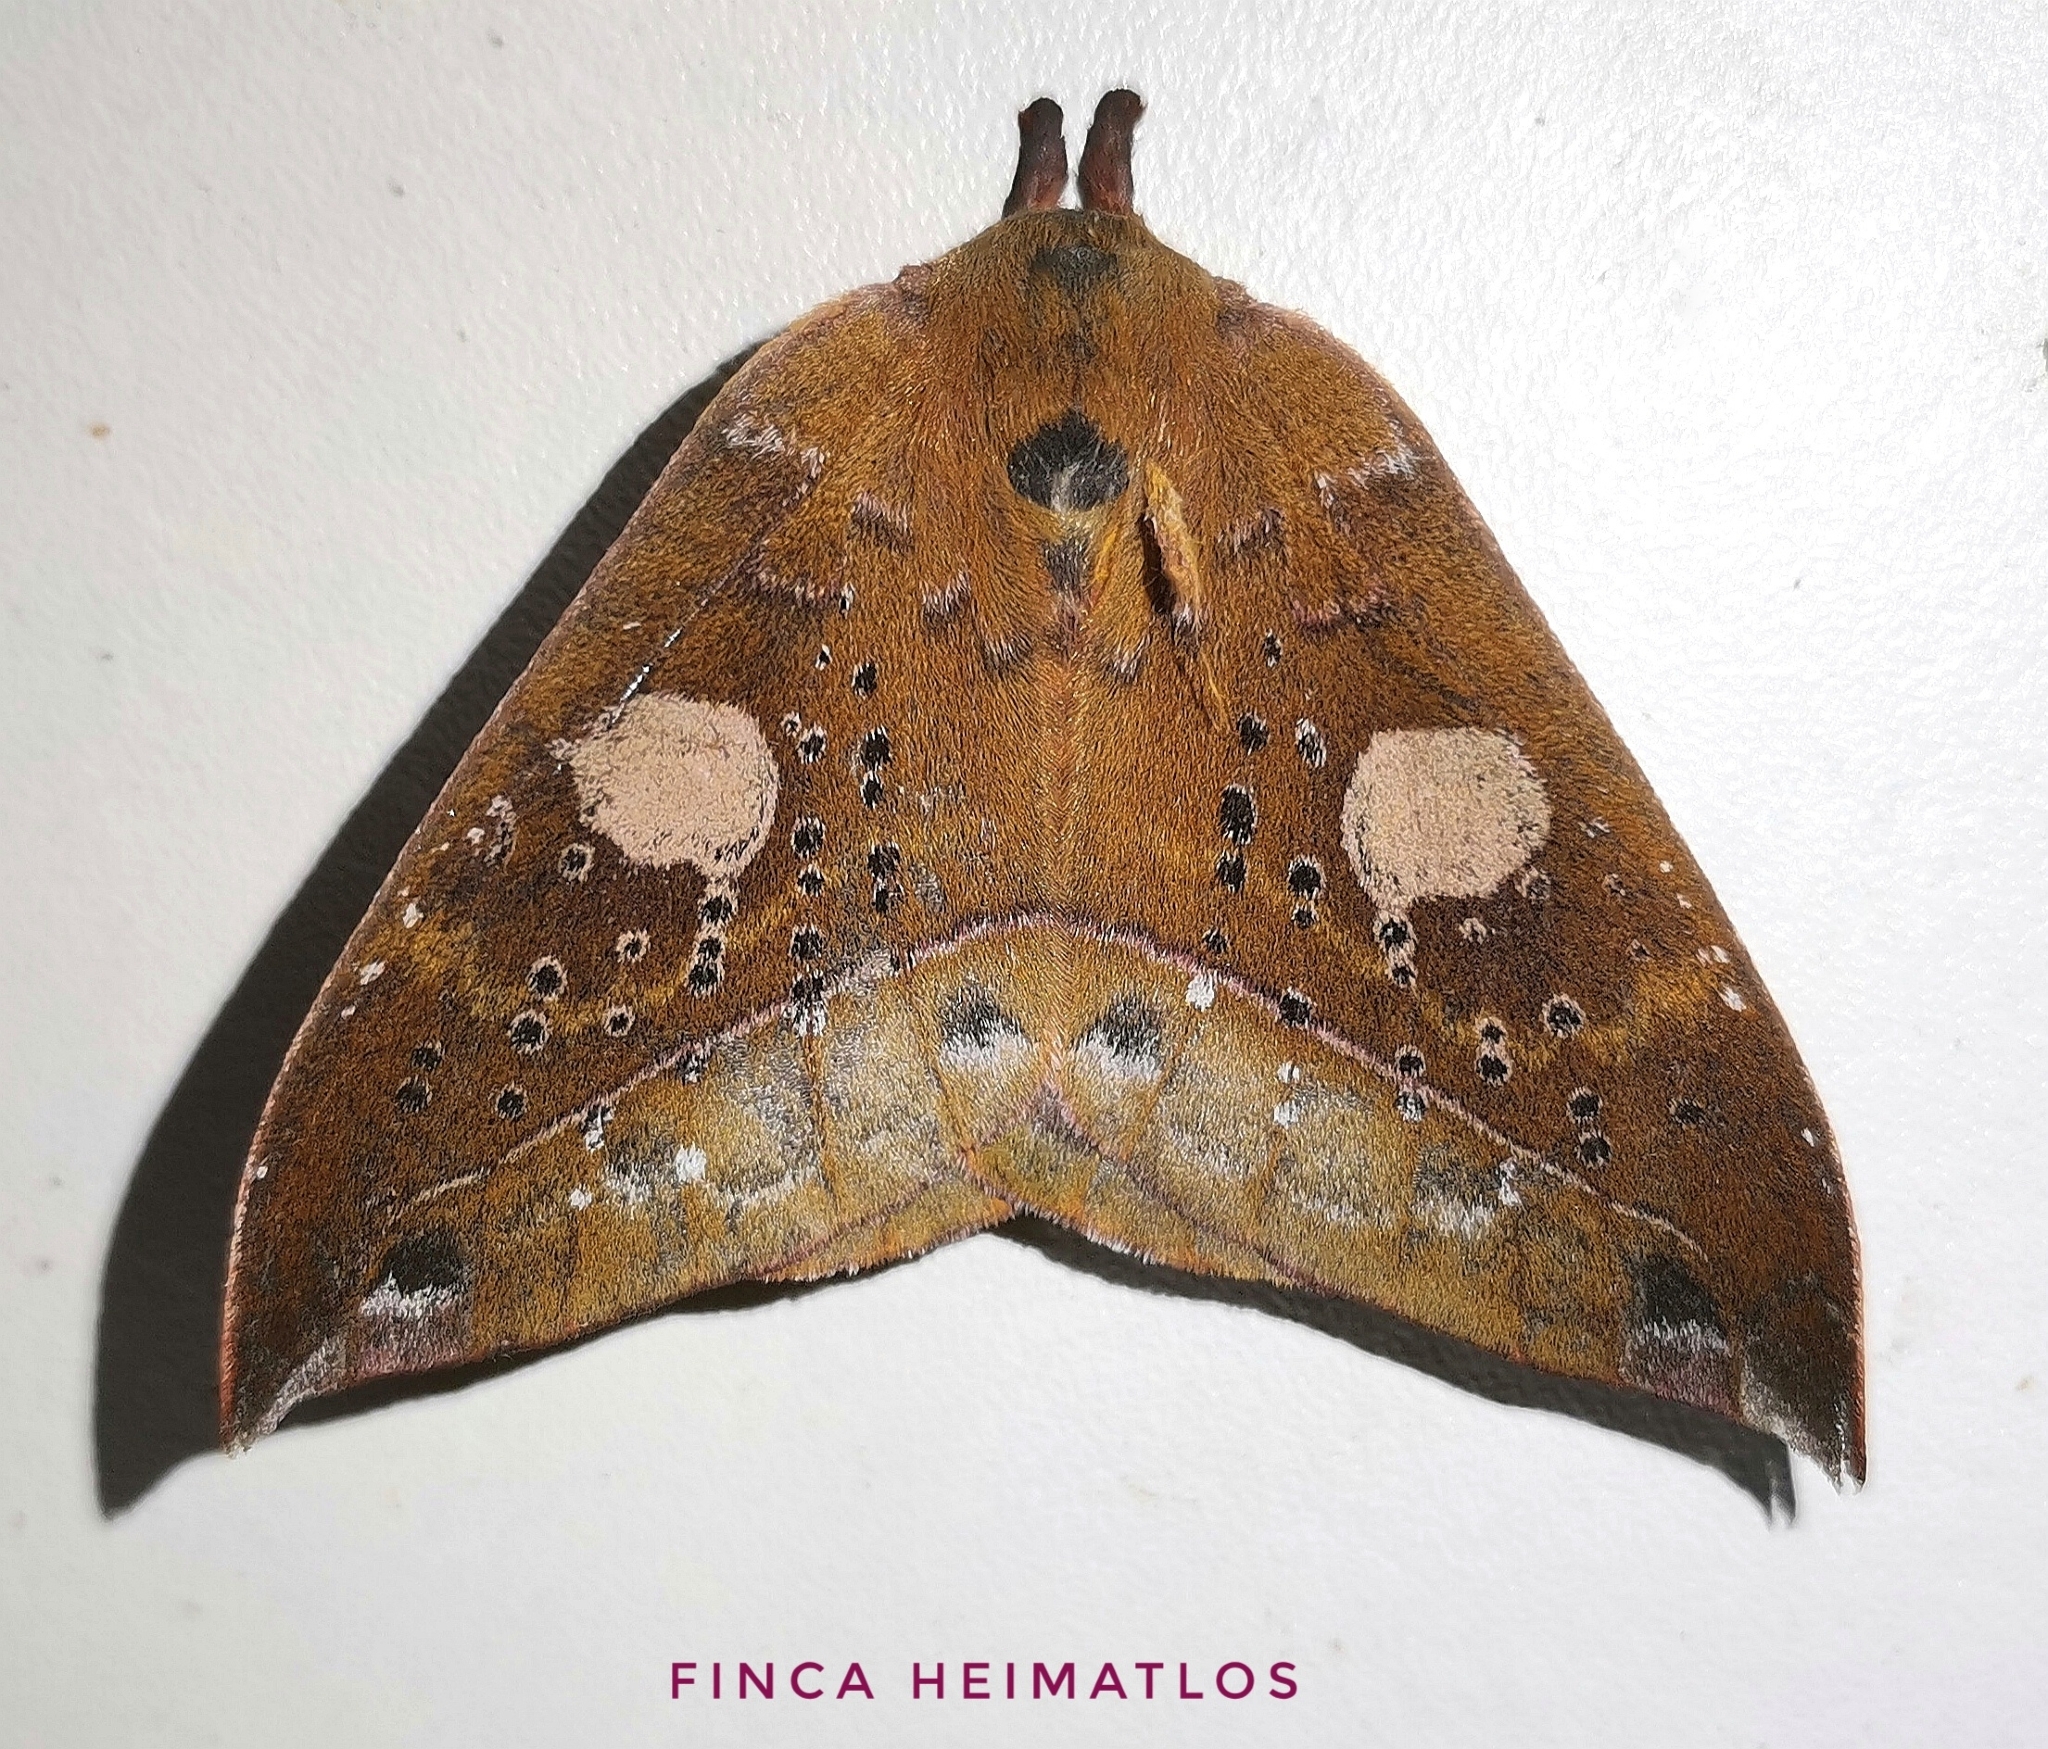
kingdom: Animalia
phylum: Arthropoda
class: Insecta
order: Lepidoptera
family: Saturniidae
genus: Automerina
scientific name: Automerina auletes
